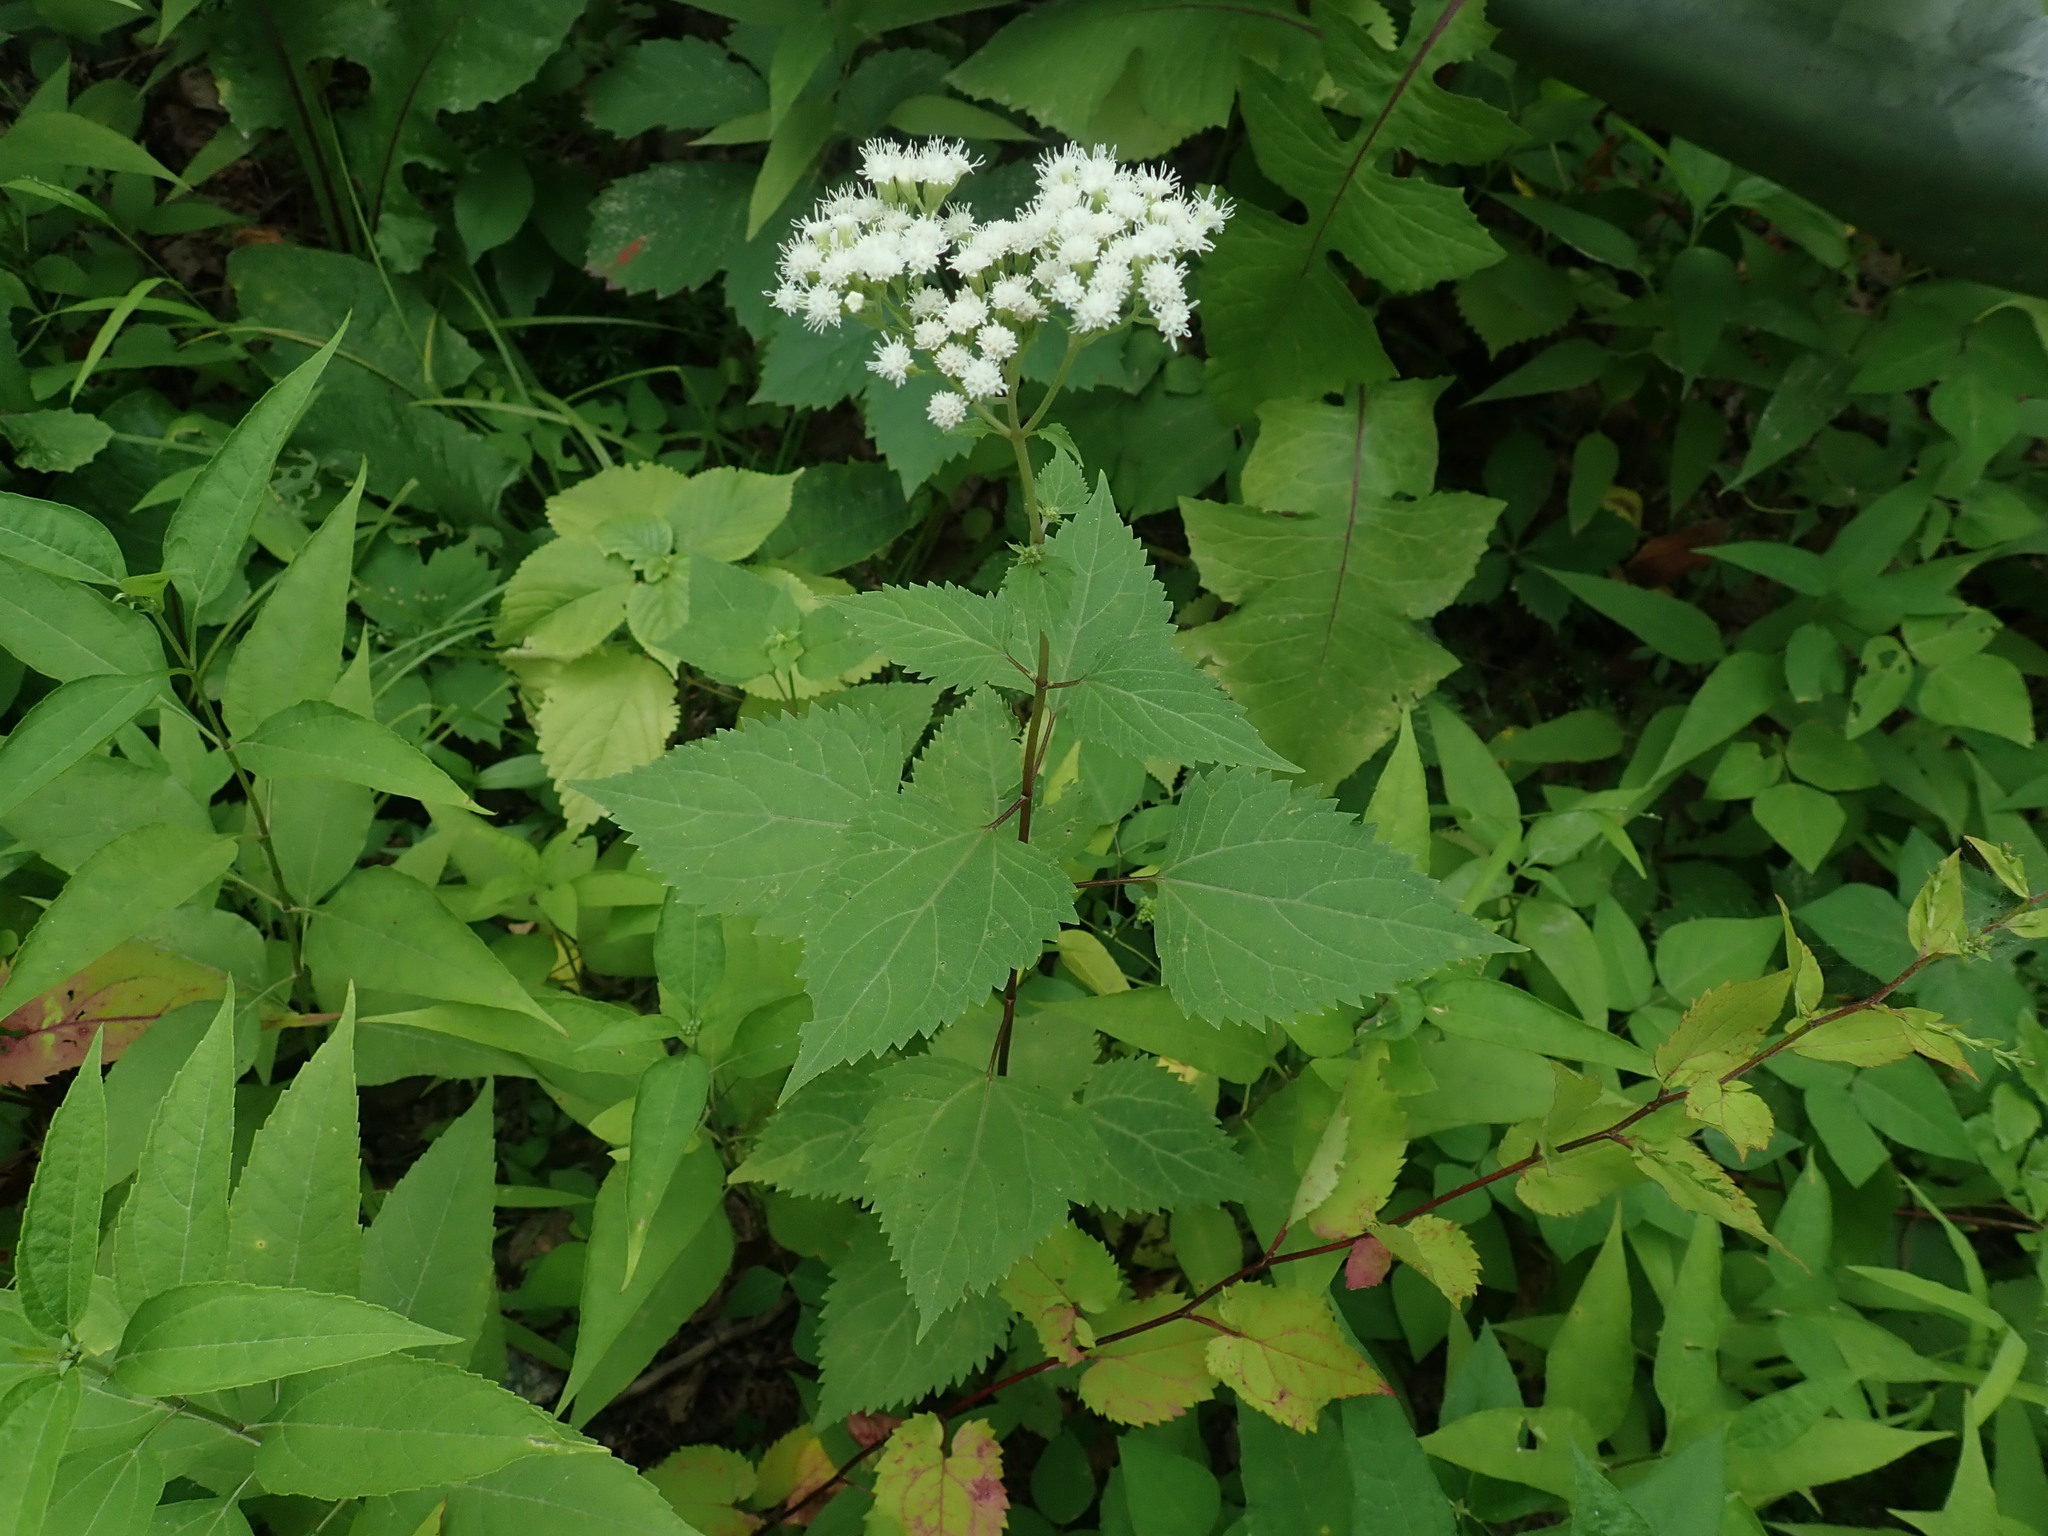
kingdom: Plantae
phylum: Tracheophyta
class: Magnoliopsida
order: Asterales
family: Asteraceae
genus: Ageratina
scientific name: Ageratina altissima
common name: White snakeroot
